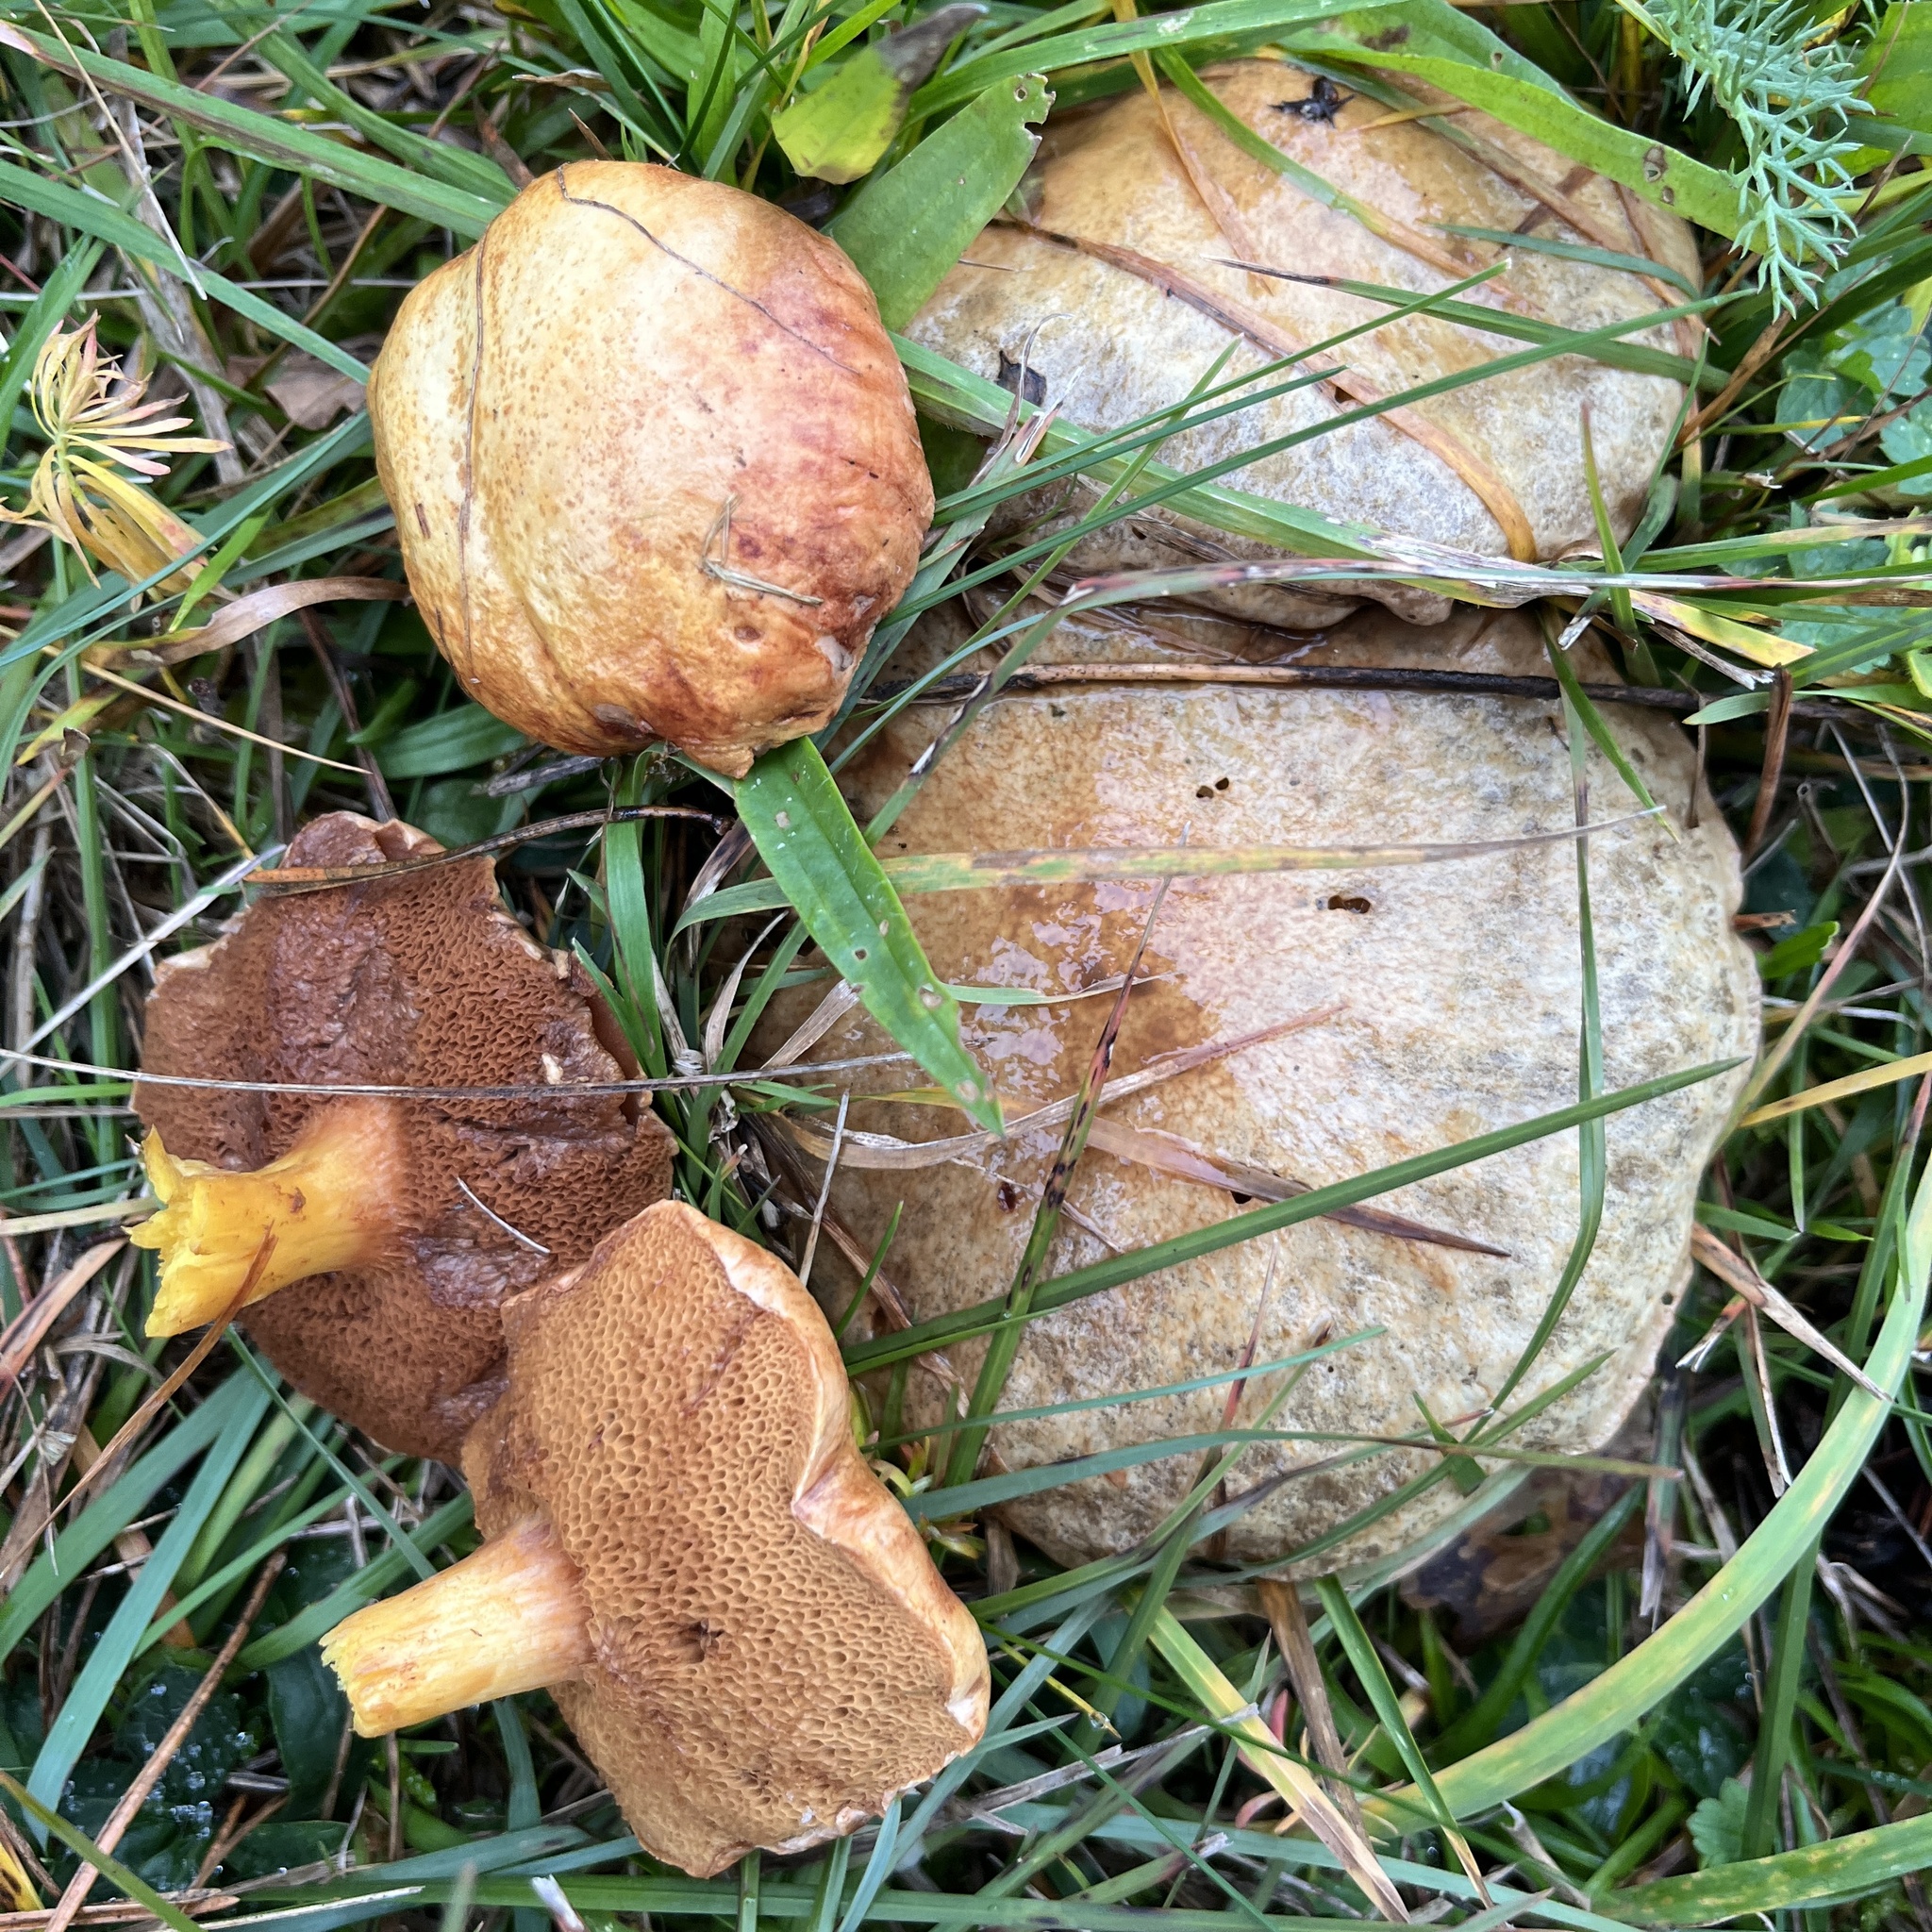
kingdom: Fungi
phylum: Basidiomycota
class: Agaricomycetes
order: Boletales
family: Boletaceae
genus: Chalciporus
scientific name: Chalciporus piperatus
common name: Peppery bolete
